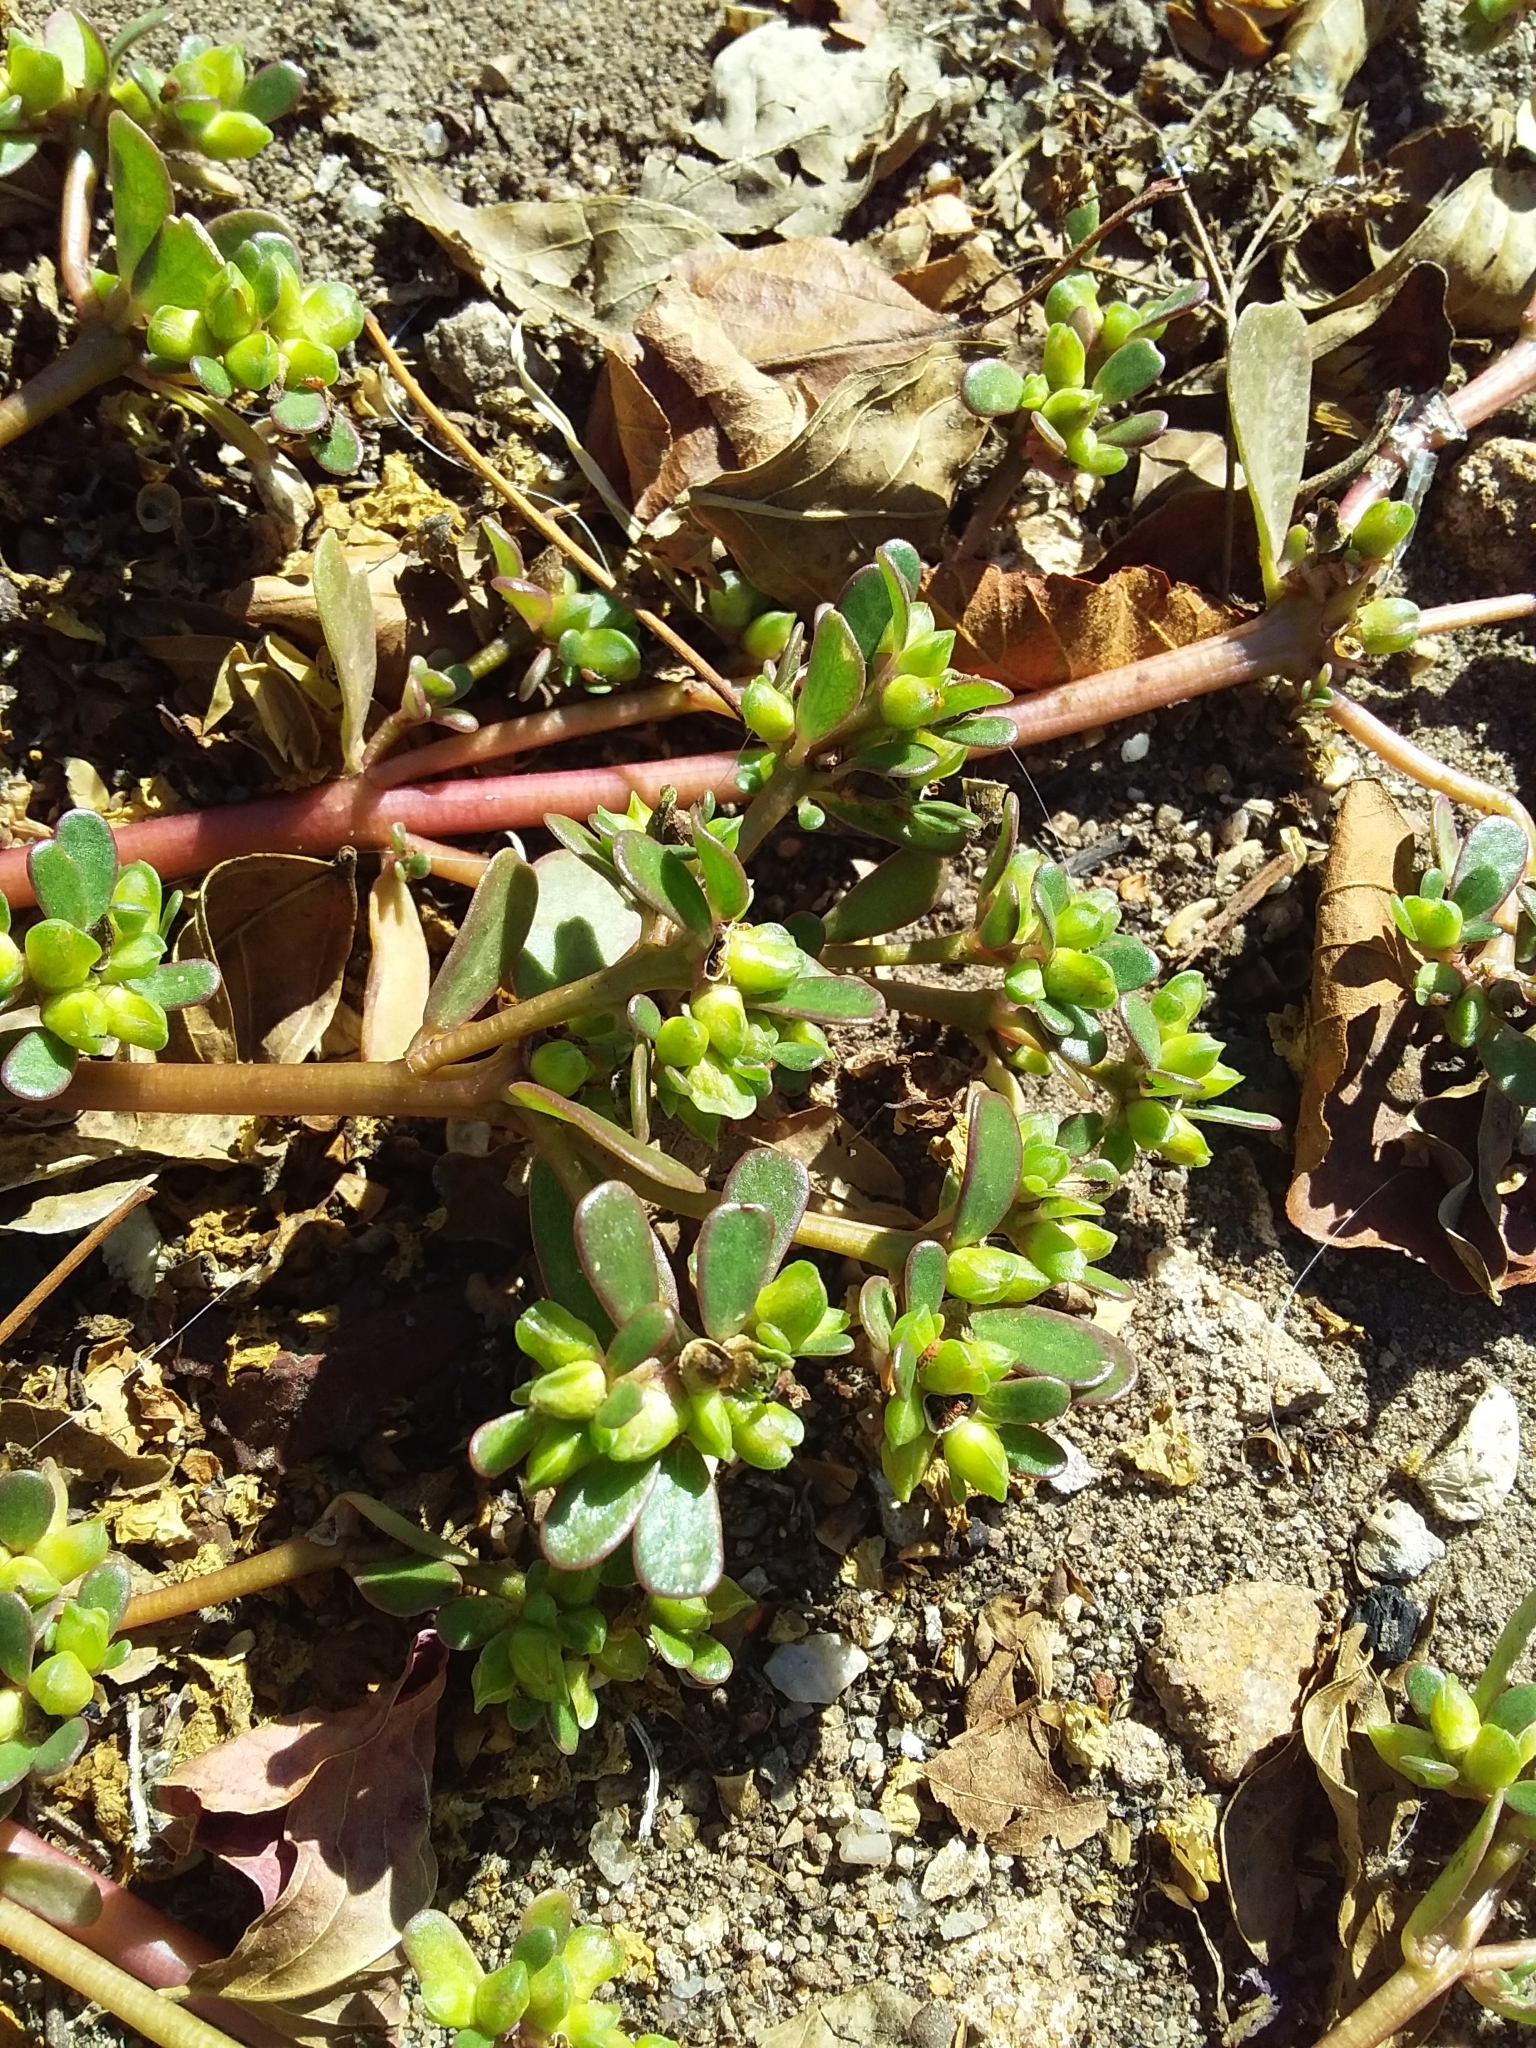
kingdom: Plantae
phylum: Tracheophyta
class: Magnoliopsida
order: Caryophyllales
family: Portulacaceae
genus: Portulaca
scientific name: Portulaca oleracea
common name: Common purslane
